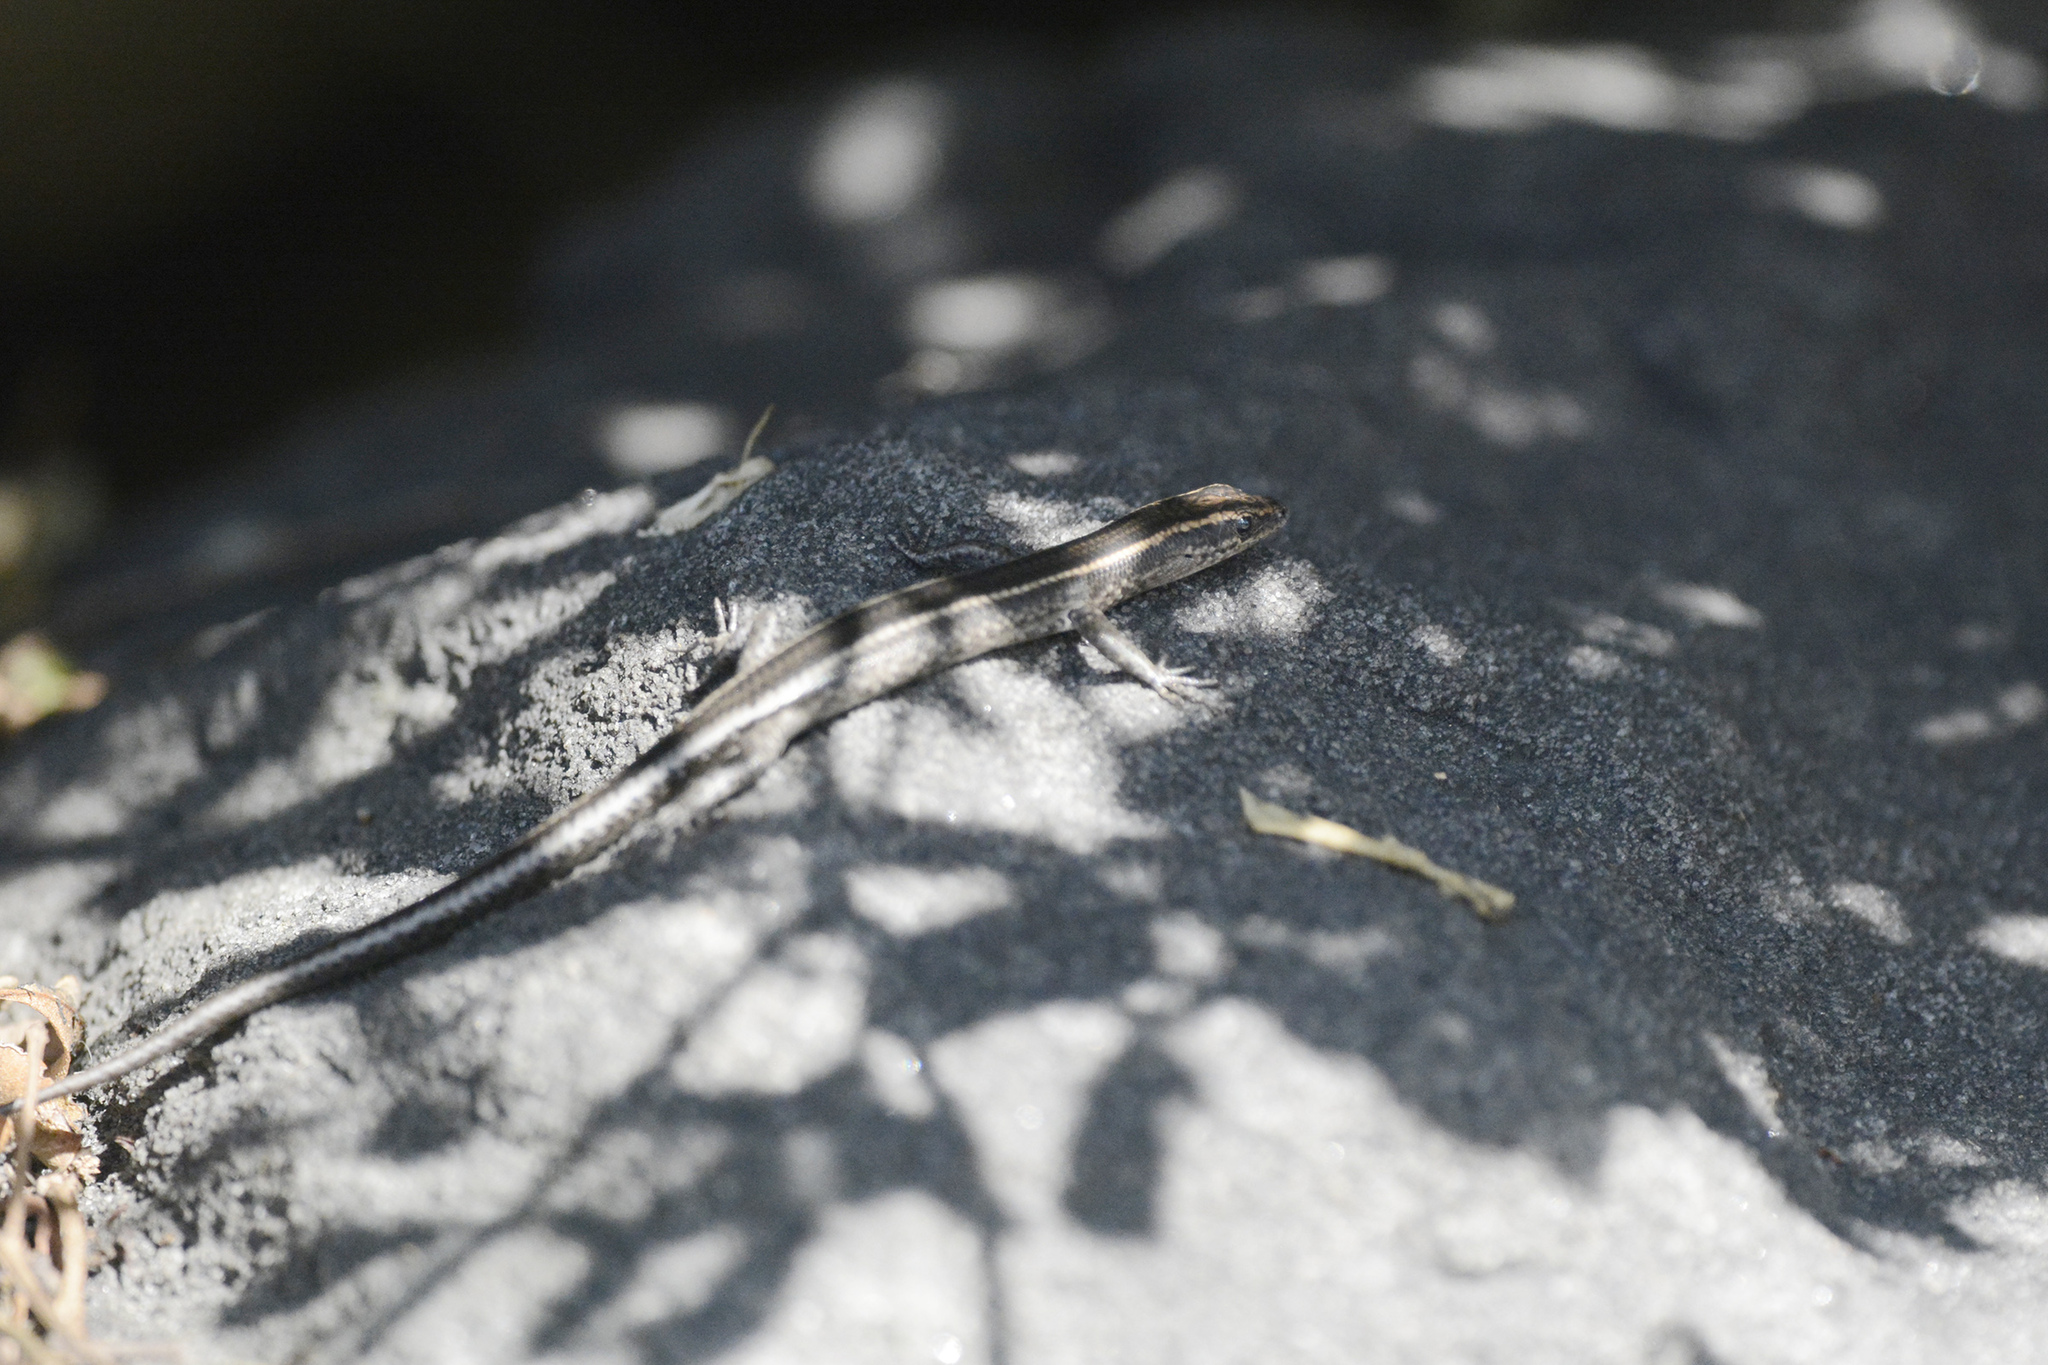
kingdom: Animalia
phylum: Chordata
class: Squamata
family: Scincidae
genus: Cryptoblepharus
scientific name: Cryptoblepharus pulcher
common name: Elegant snake-eyed skink
